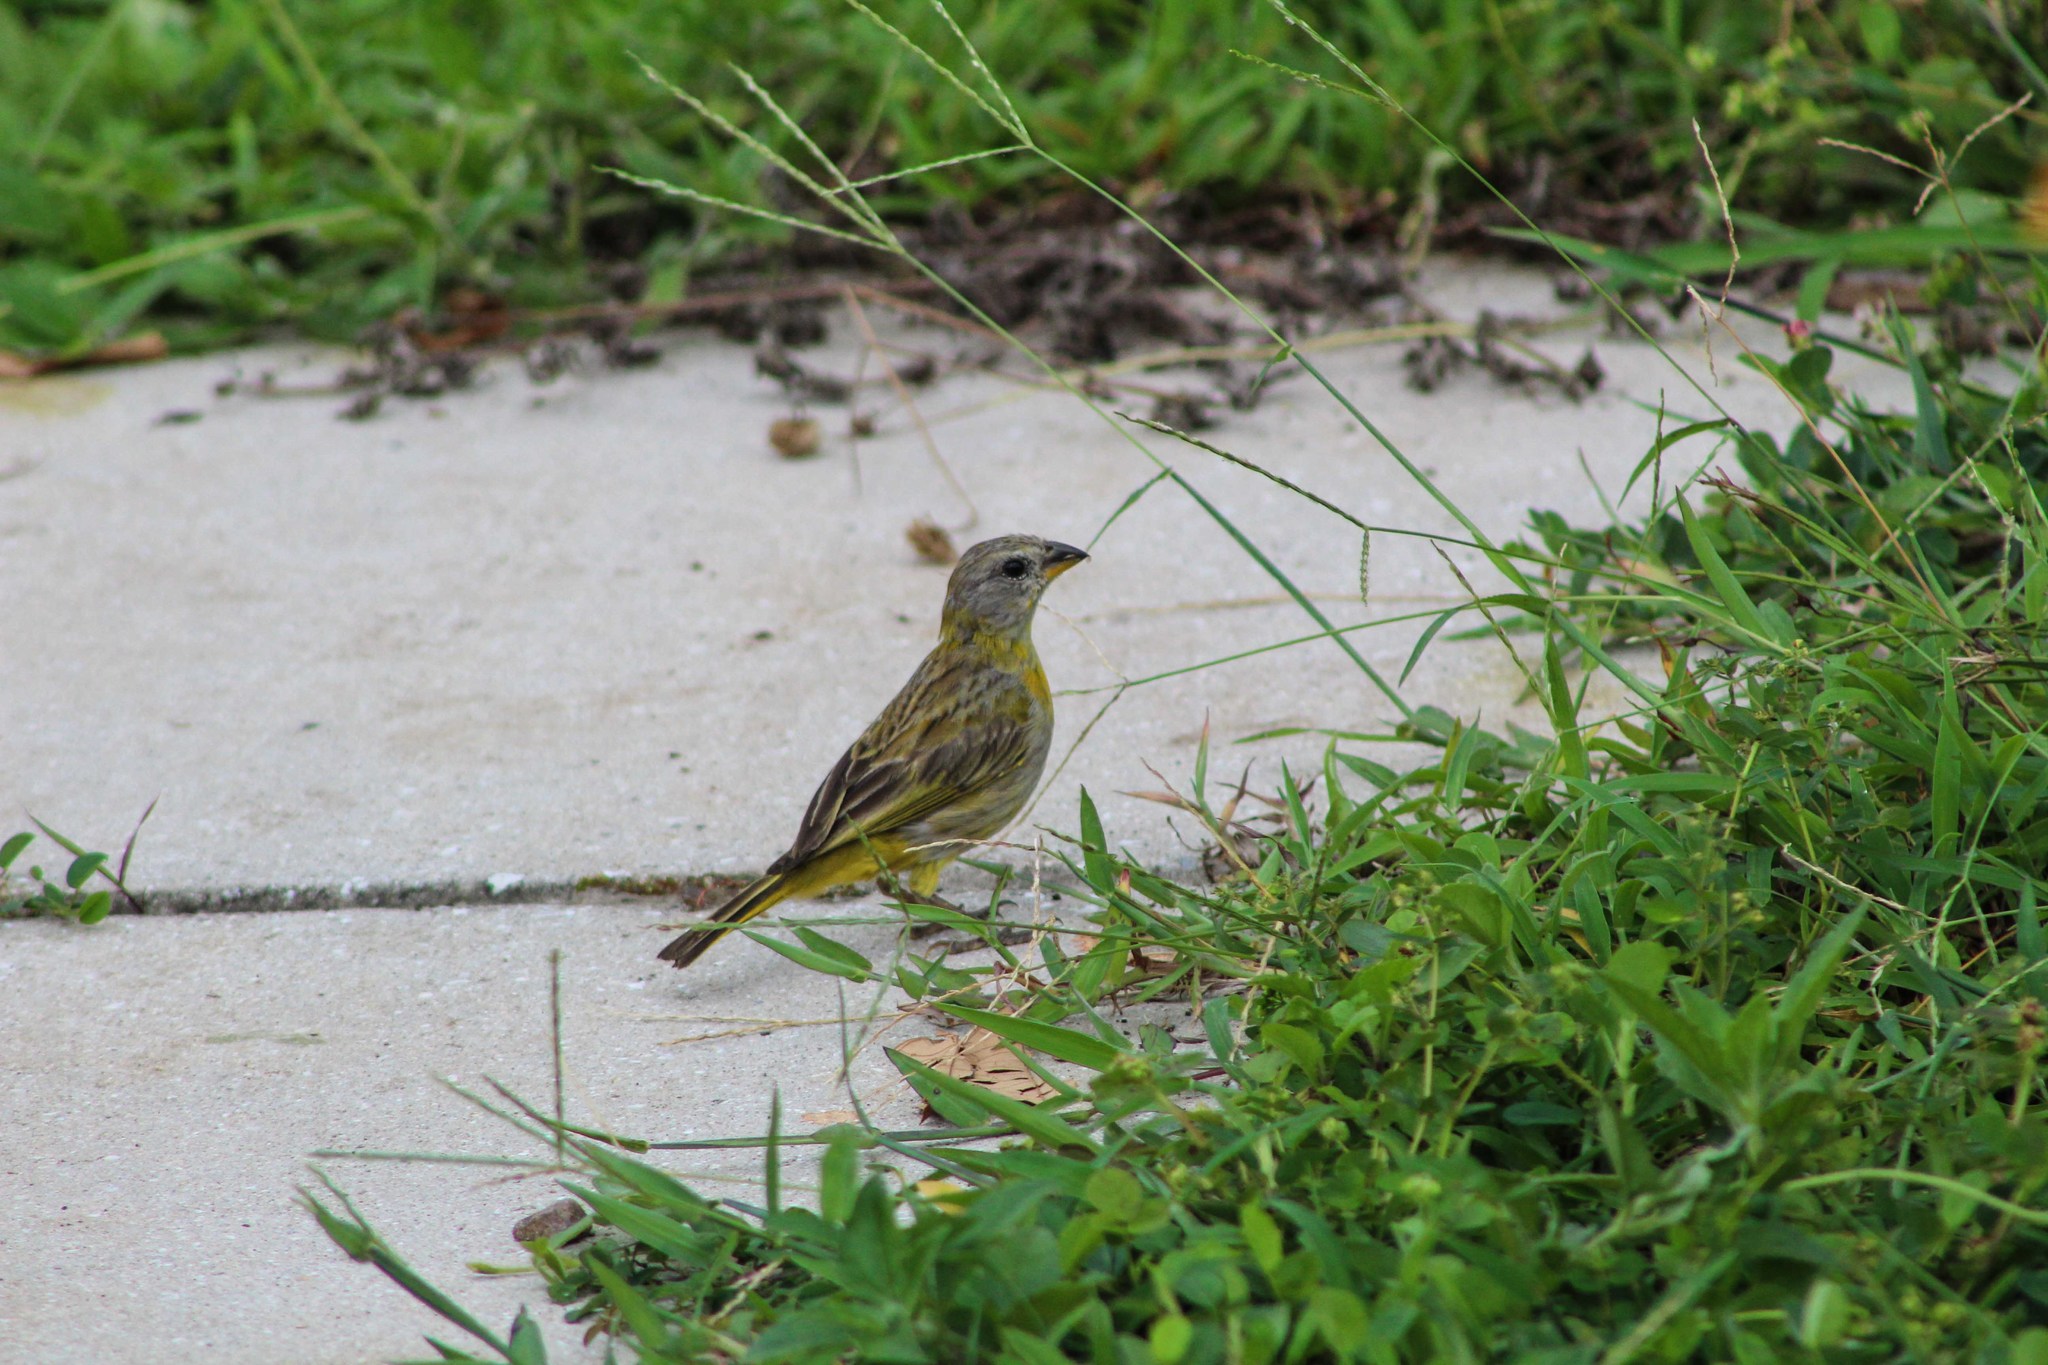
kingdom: Animalia
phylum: Chordata
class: Aves
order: Passeriformes
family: Thraupidae
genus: Sicalis
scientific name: Sicalis flaveola
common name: Saffron finch
